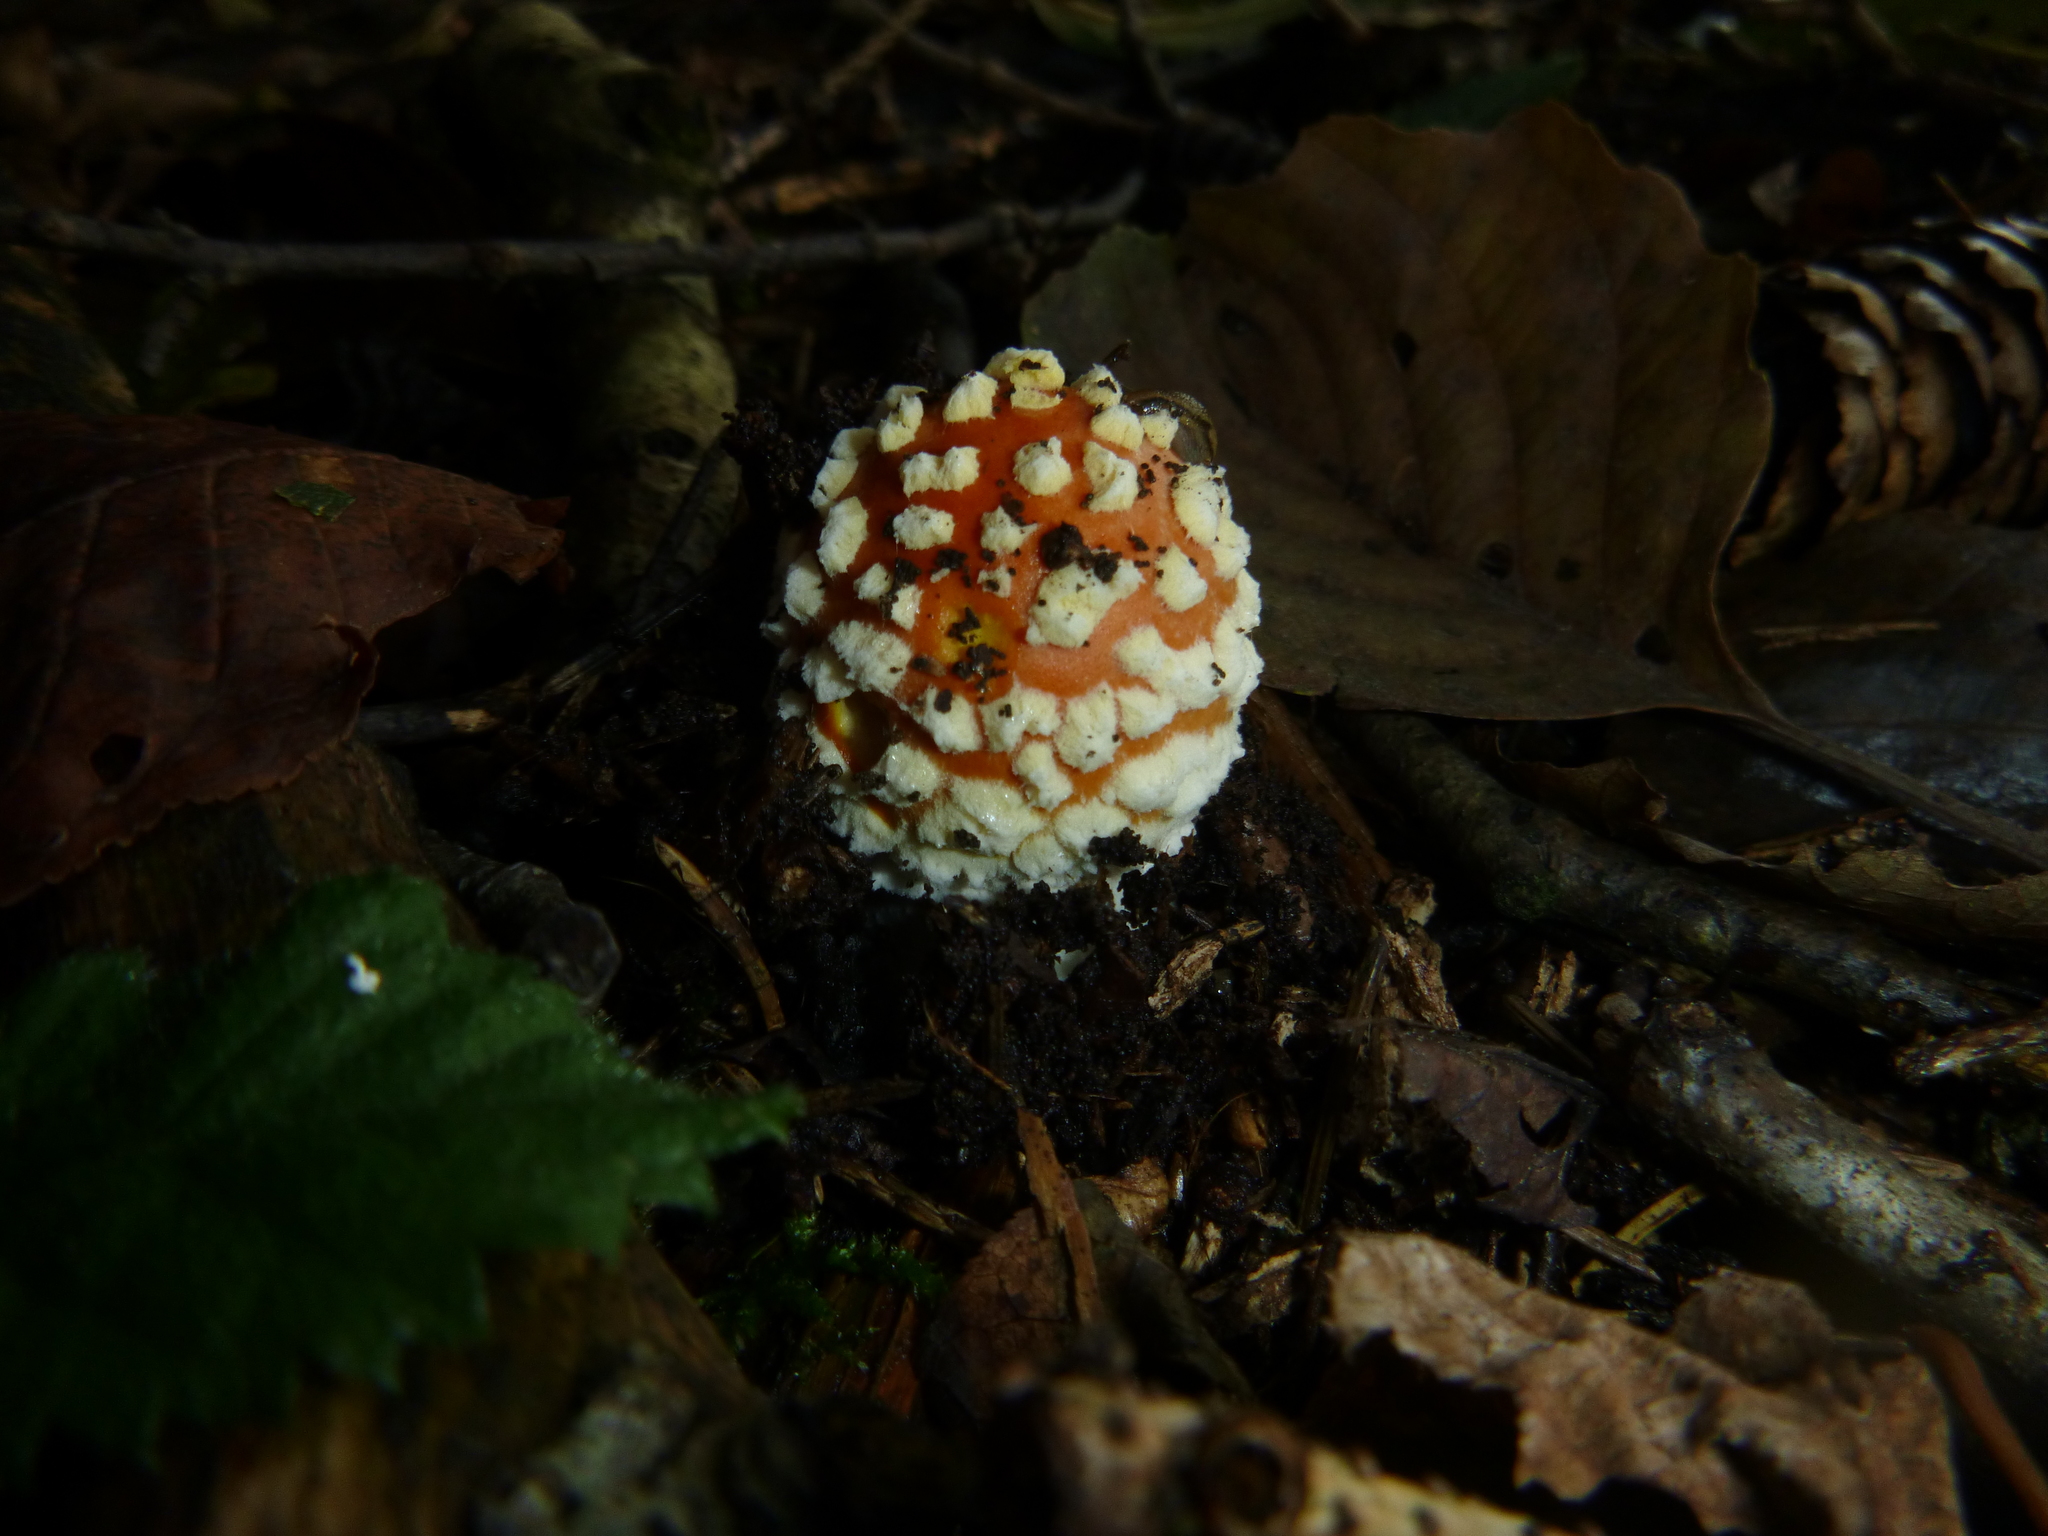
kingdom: Fungi
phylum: Basidiomycota
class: Agaricomycetes
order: Agaricales
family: Amanitaceae
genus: Amanita
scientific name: Amanita muscaria
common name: Fly agaric
